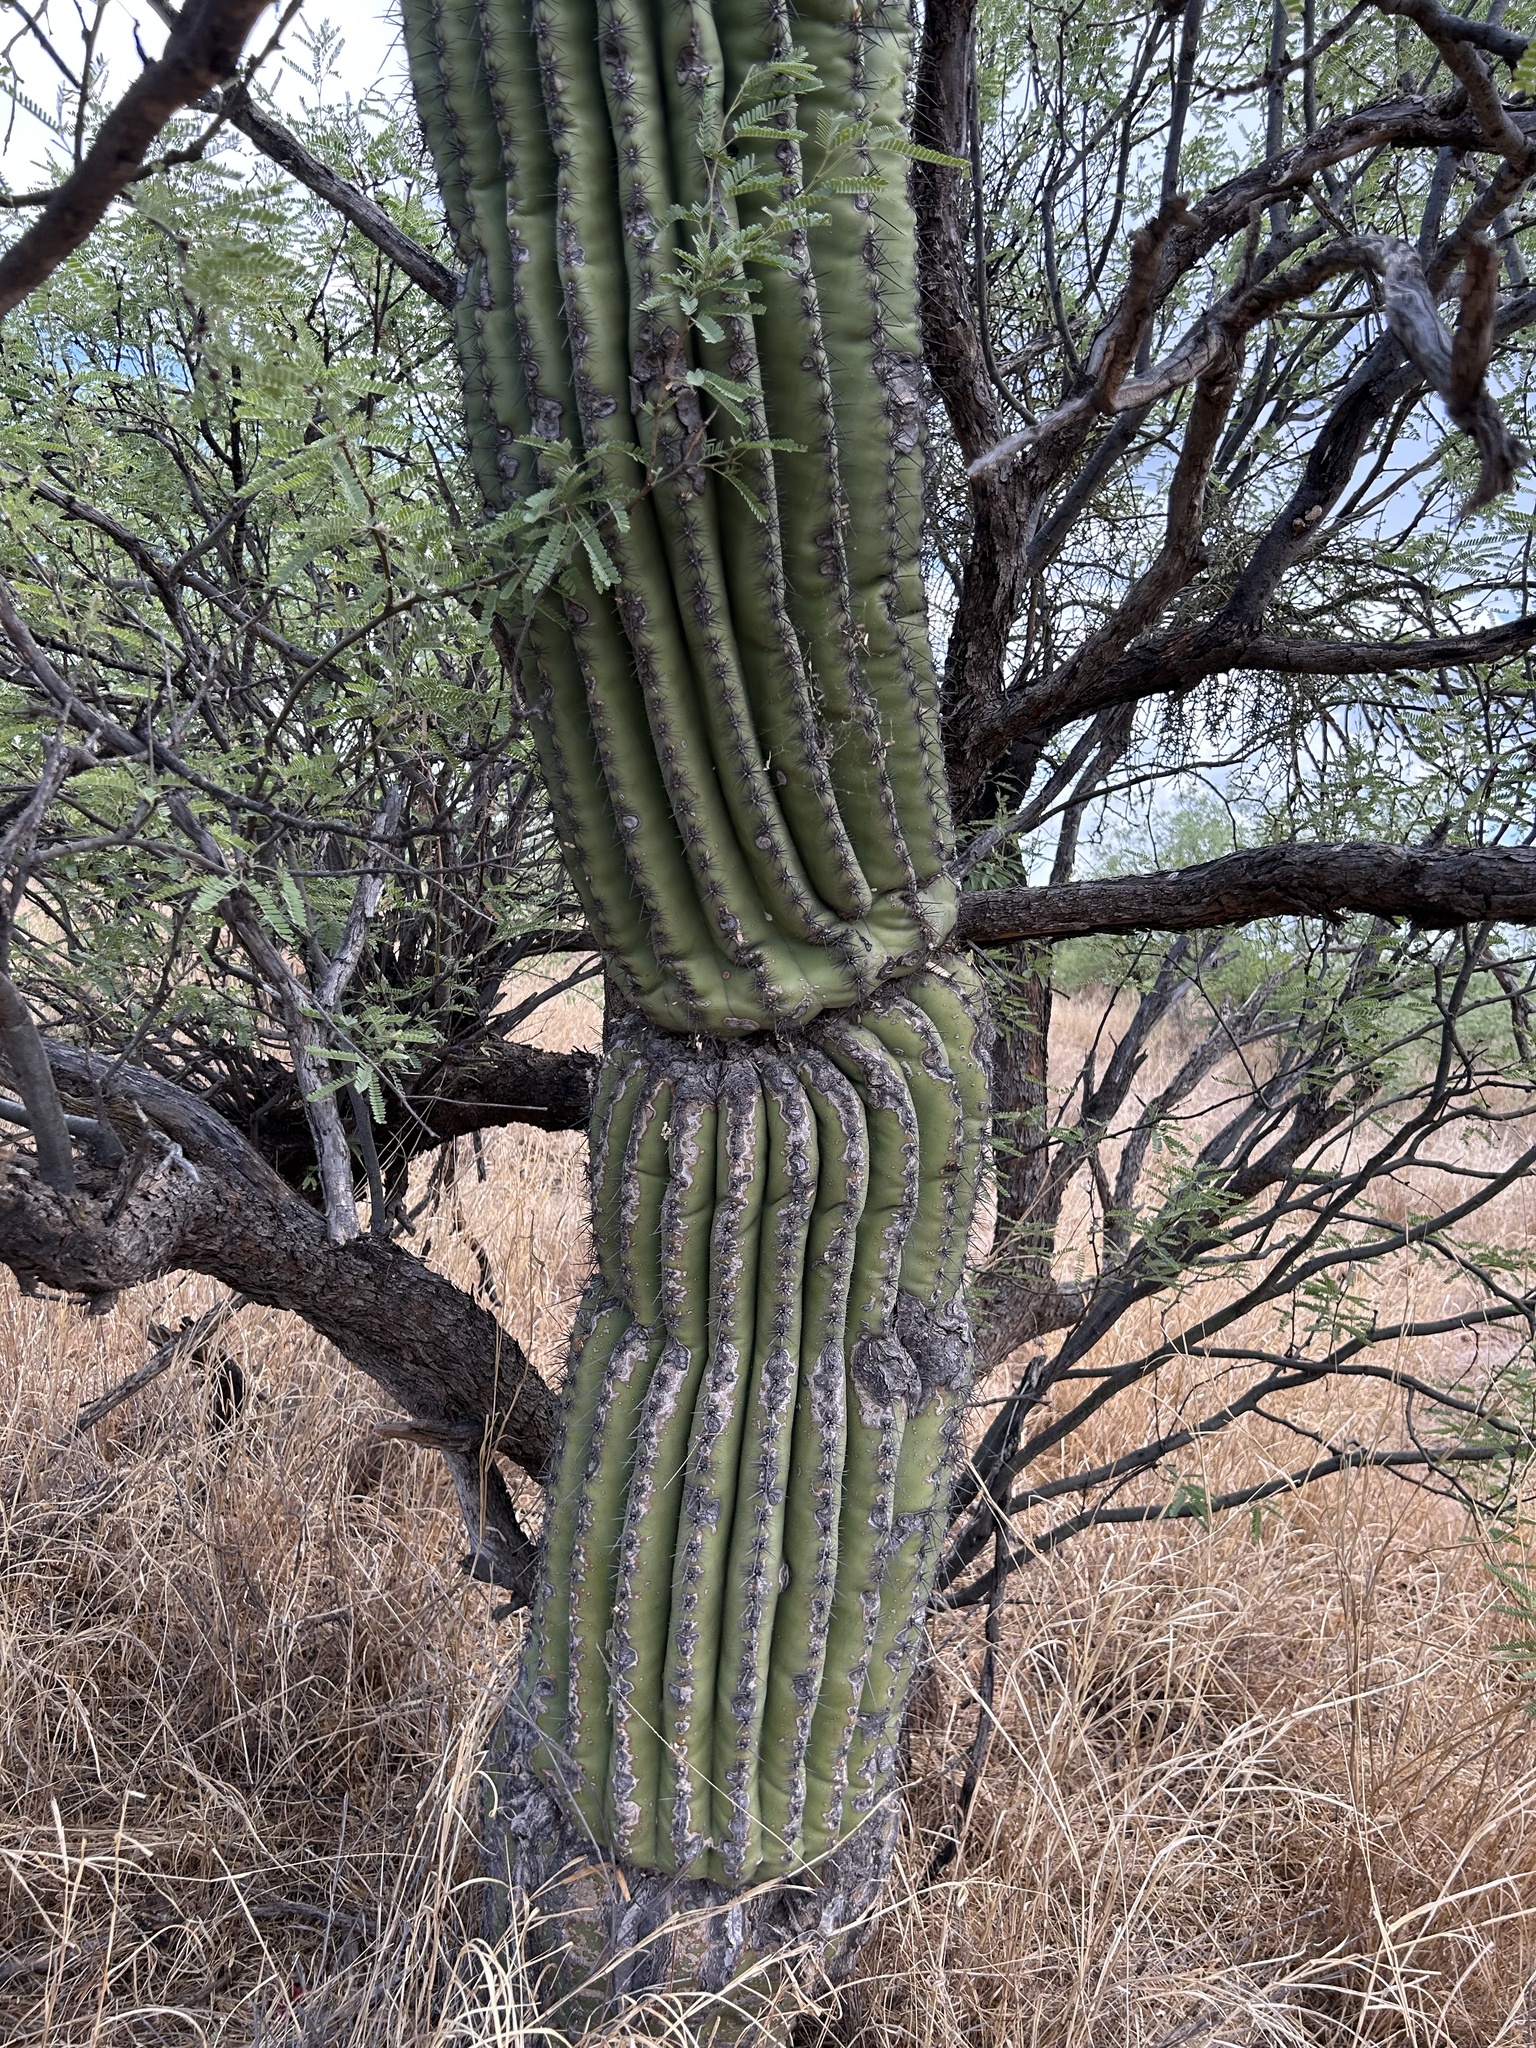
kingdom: Plantae
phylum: Tracheophyta
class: Magnoliopsida
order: Caryophyllales
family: Cactaceae
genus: Carnegiea
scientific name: Carnegiea gigantea
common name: Saguaro
